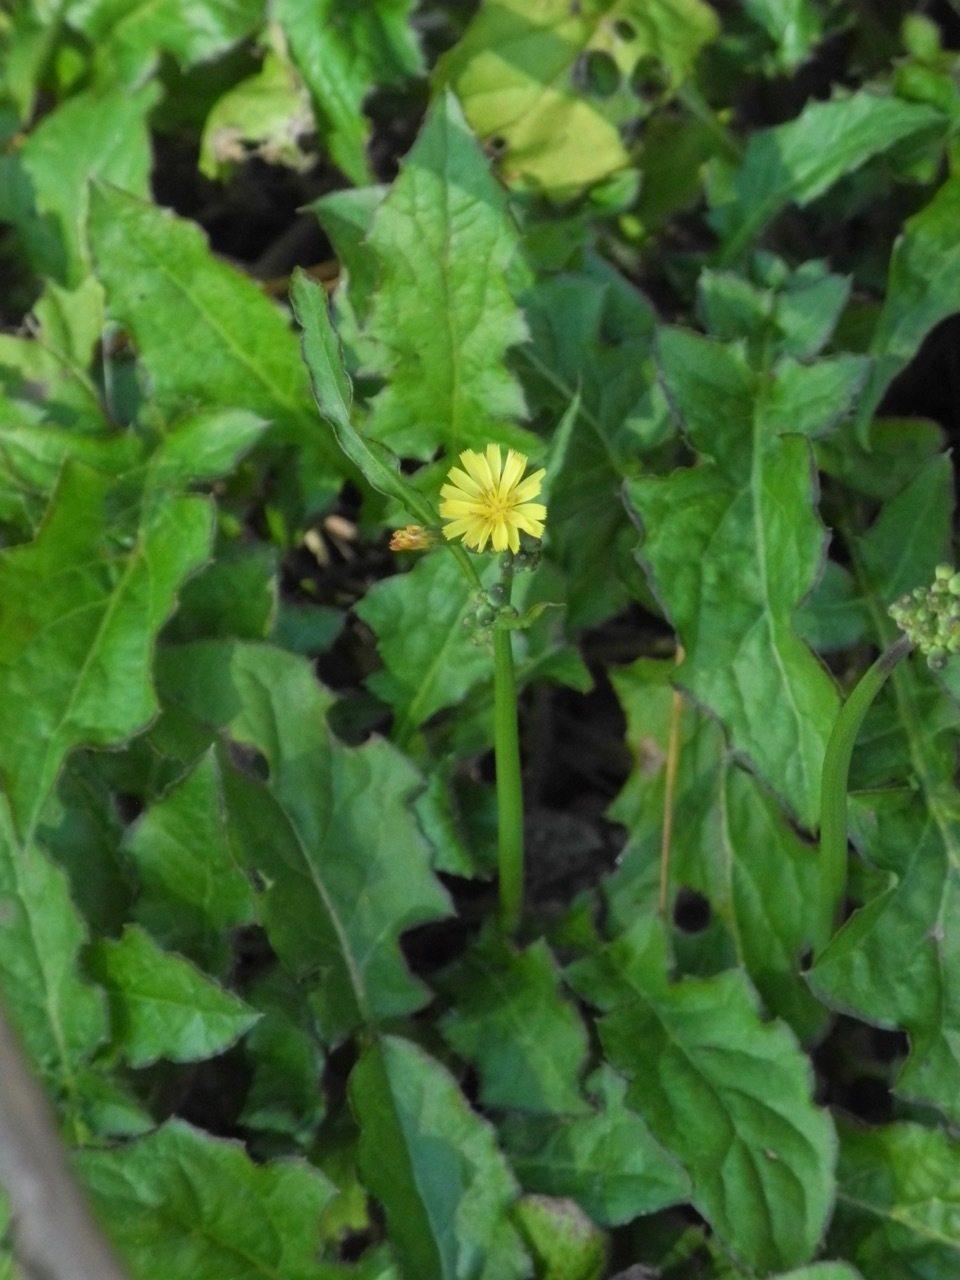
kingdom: Plantae
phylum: Tracheophyta
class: Magnoliopsida
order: Asterales
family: Asteraceae
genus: Youngia
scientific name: Youngia japonica
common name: Oriental false hawksbeard
